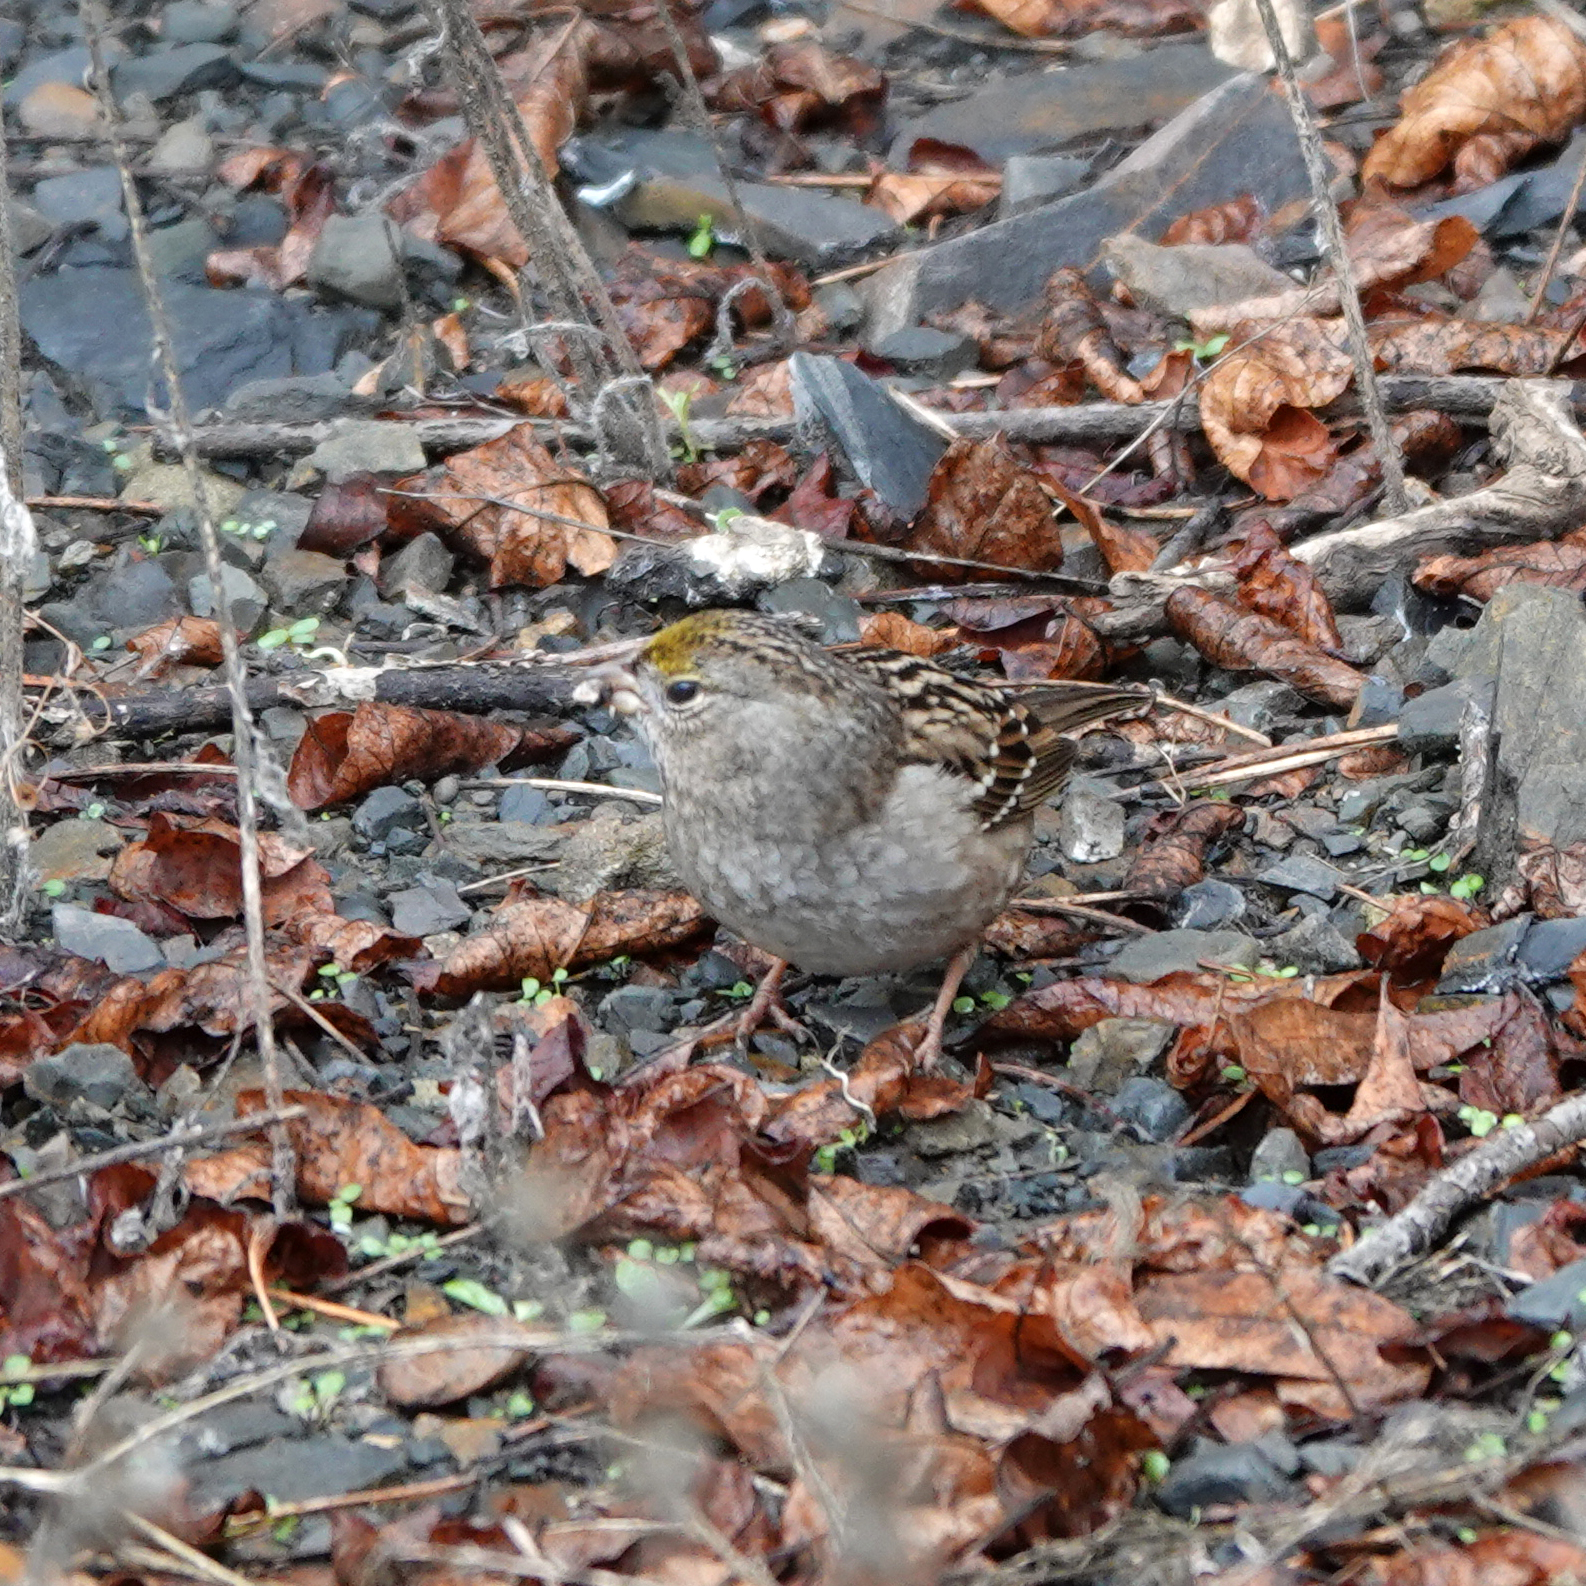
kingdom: Animalia
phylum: Chordata
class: Aves
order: Passeriformes
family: Passerellidae
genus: Zonotrichia
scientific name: Zonotrichia atricapilla
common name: Golden-crowned sparrow
